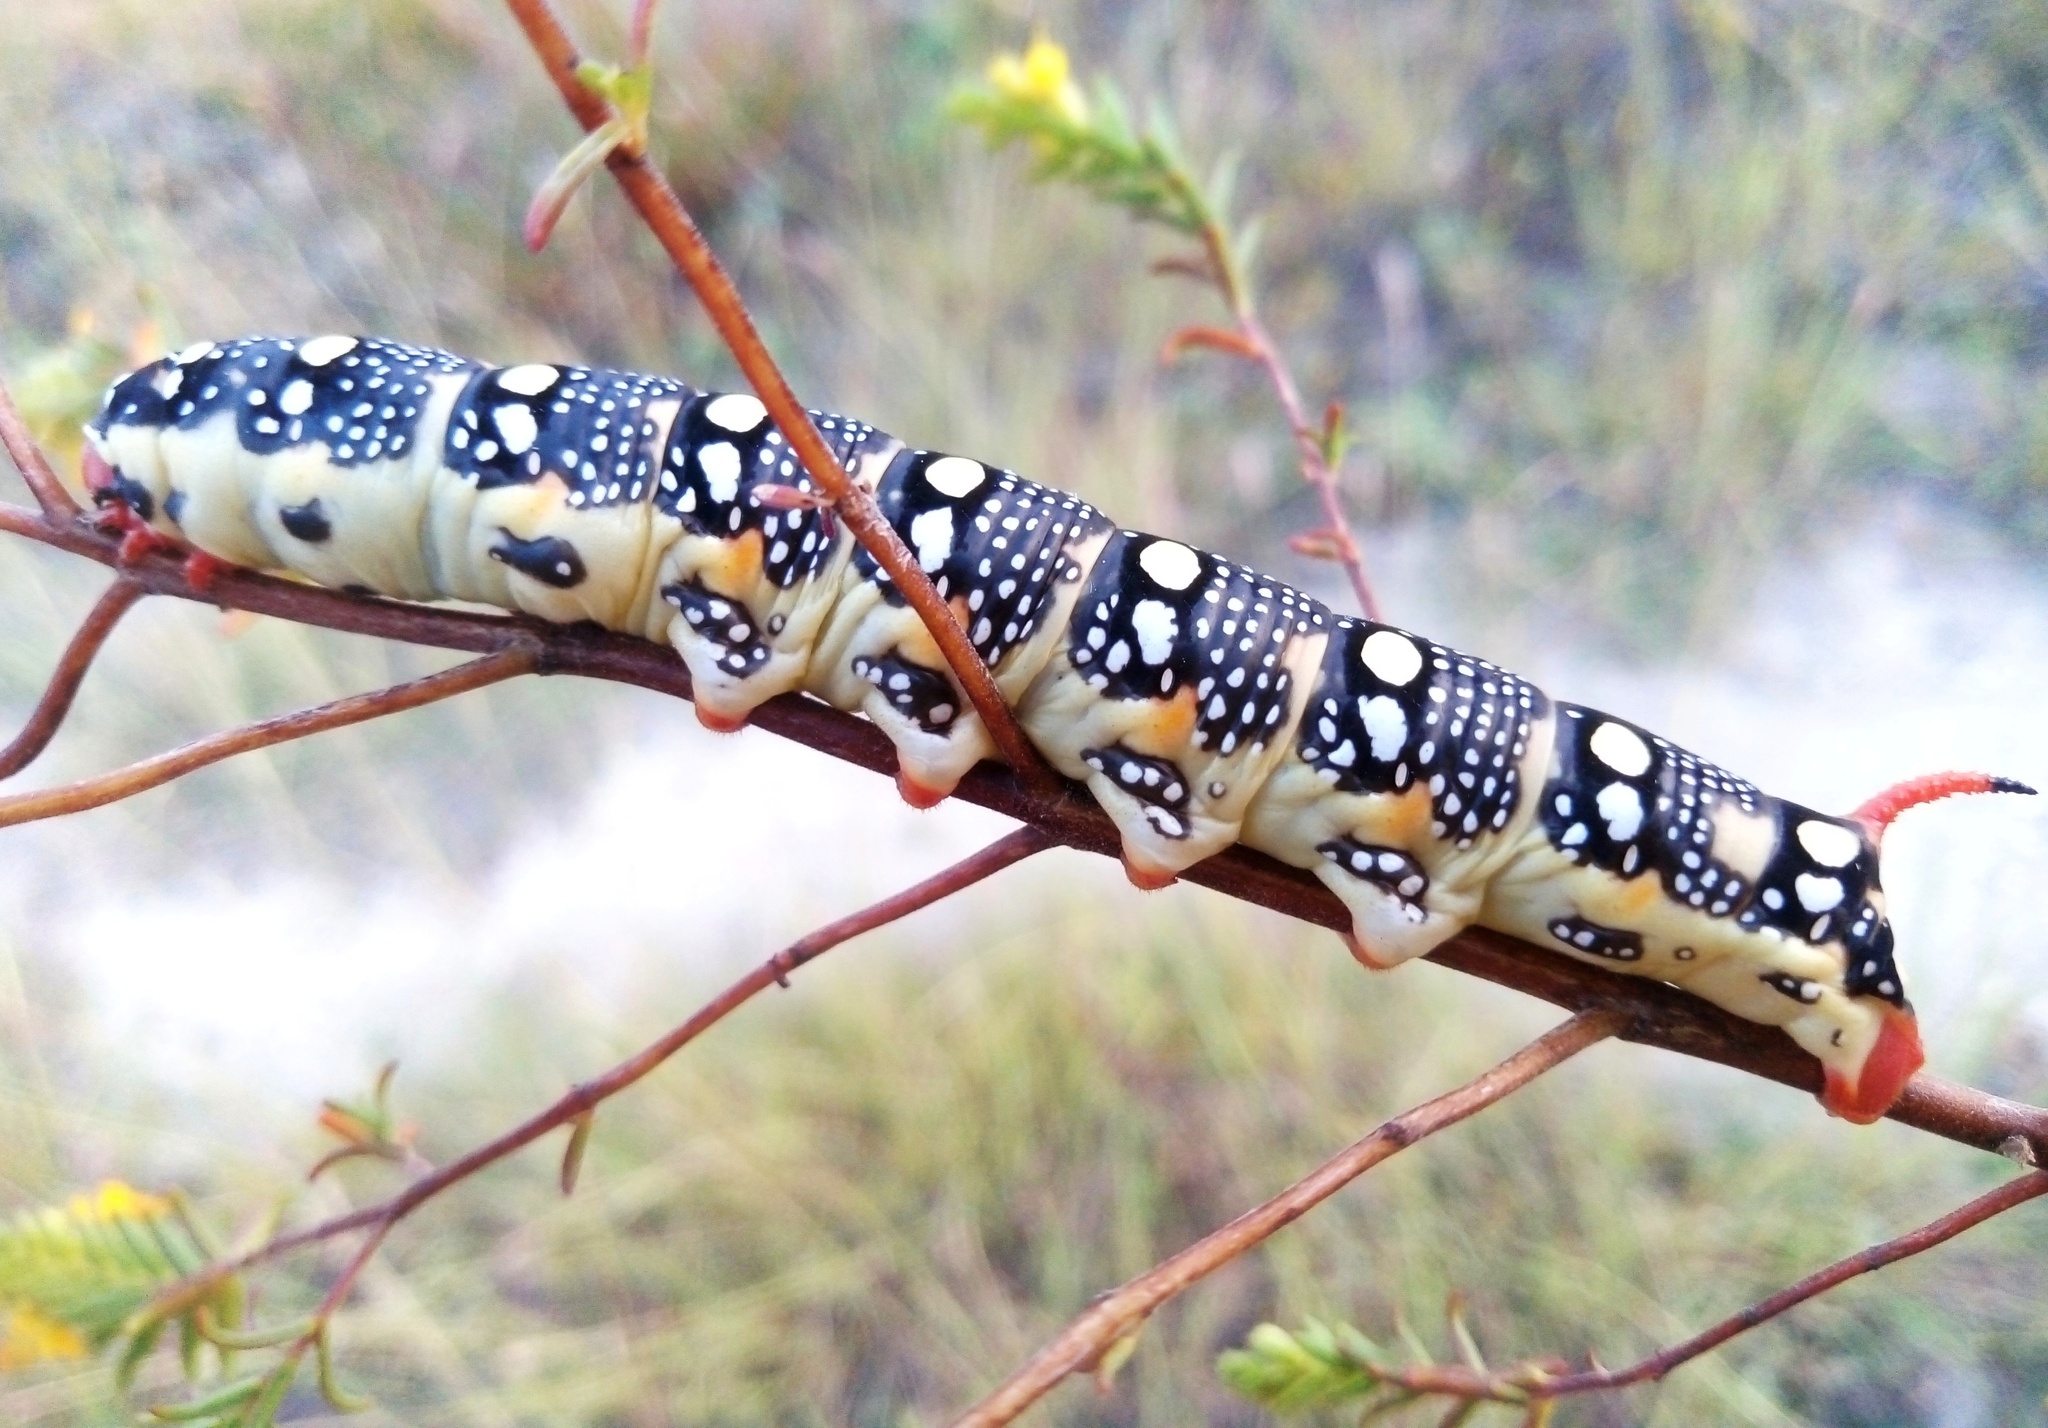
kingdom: Animalia
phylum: Arthropoda
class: Insecta
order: Lepidoptera
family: Sphingidae
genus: Hyles
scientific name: Hyles euphorbiae
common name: Spurge hawk-moth
